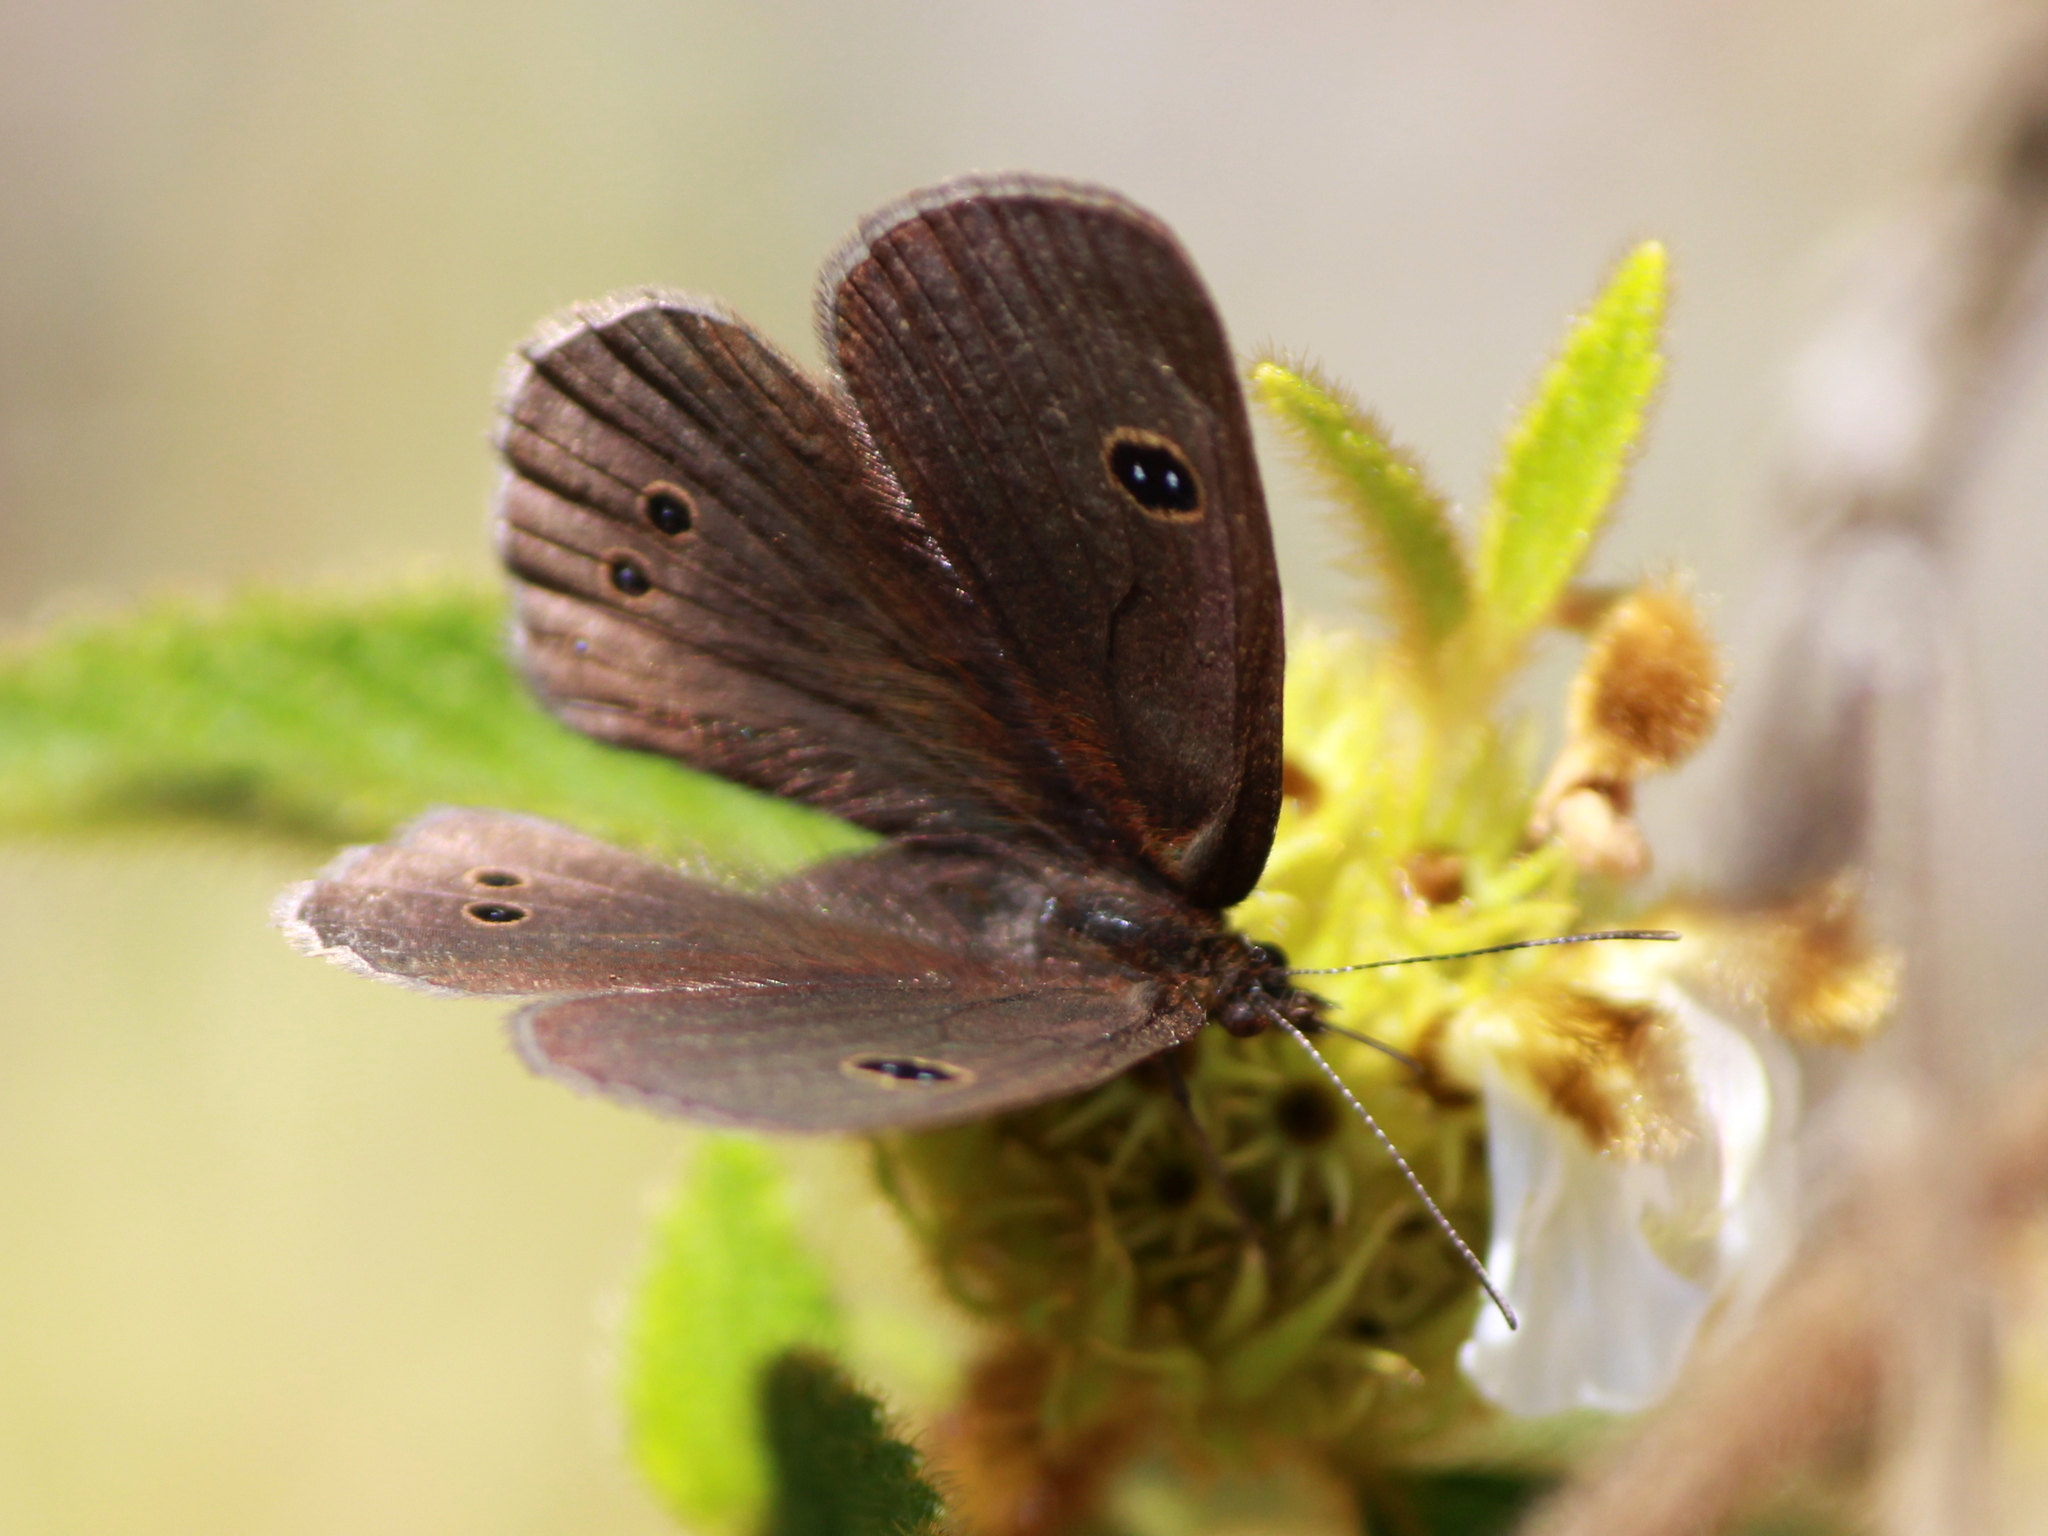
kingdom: Animalia
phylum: Arthropoda
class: Insecta
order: Lepidoptera
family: Nymphalidae
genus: Ypthima
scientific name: Ypthima ypthimoides
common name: Palni four-ring
